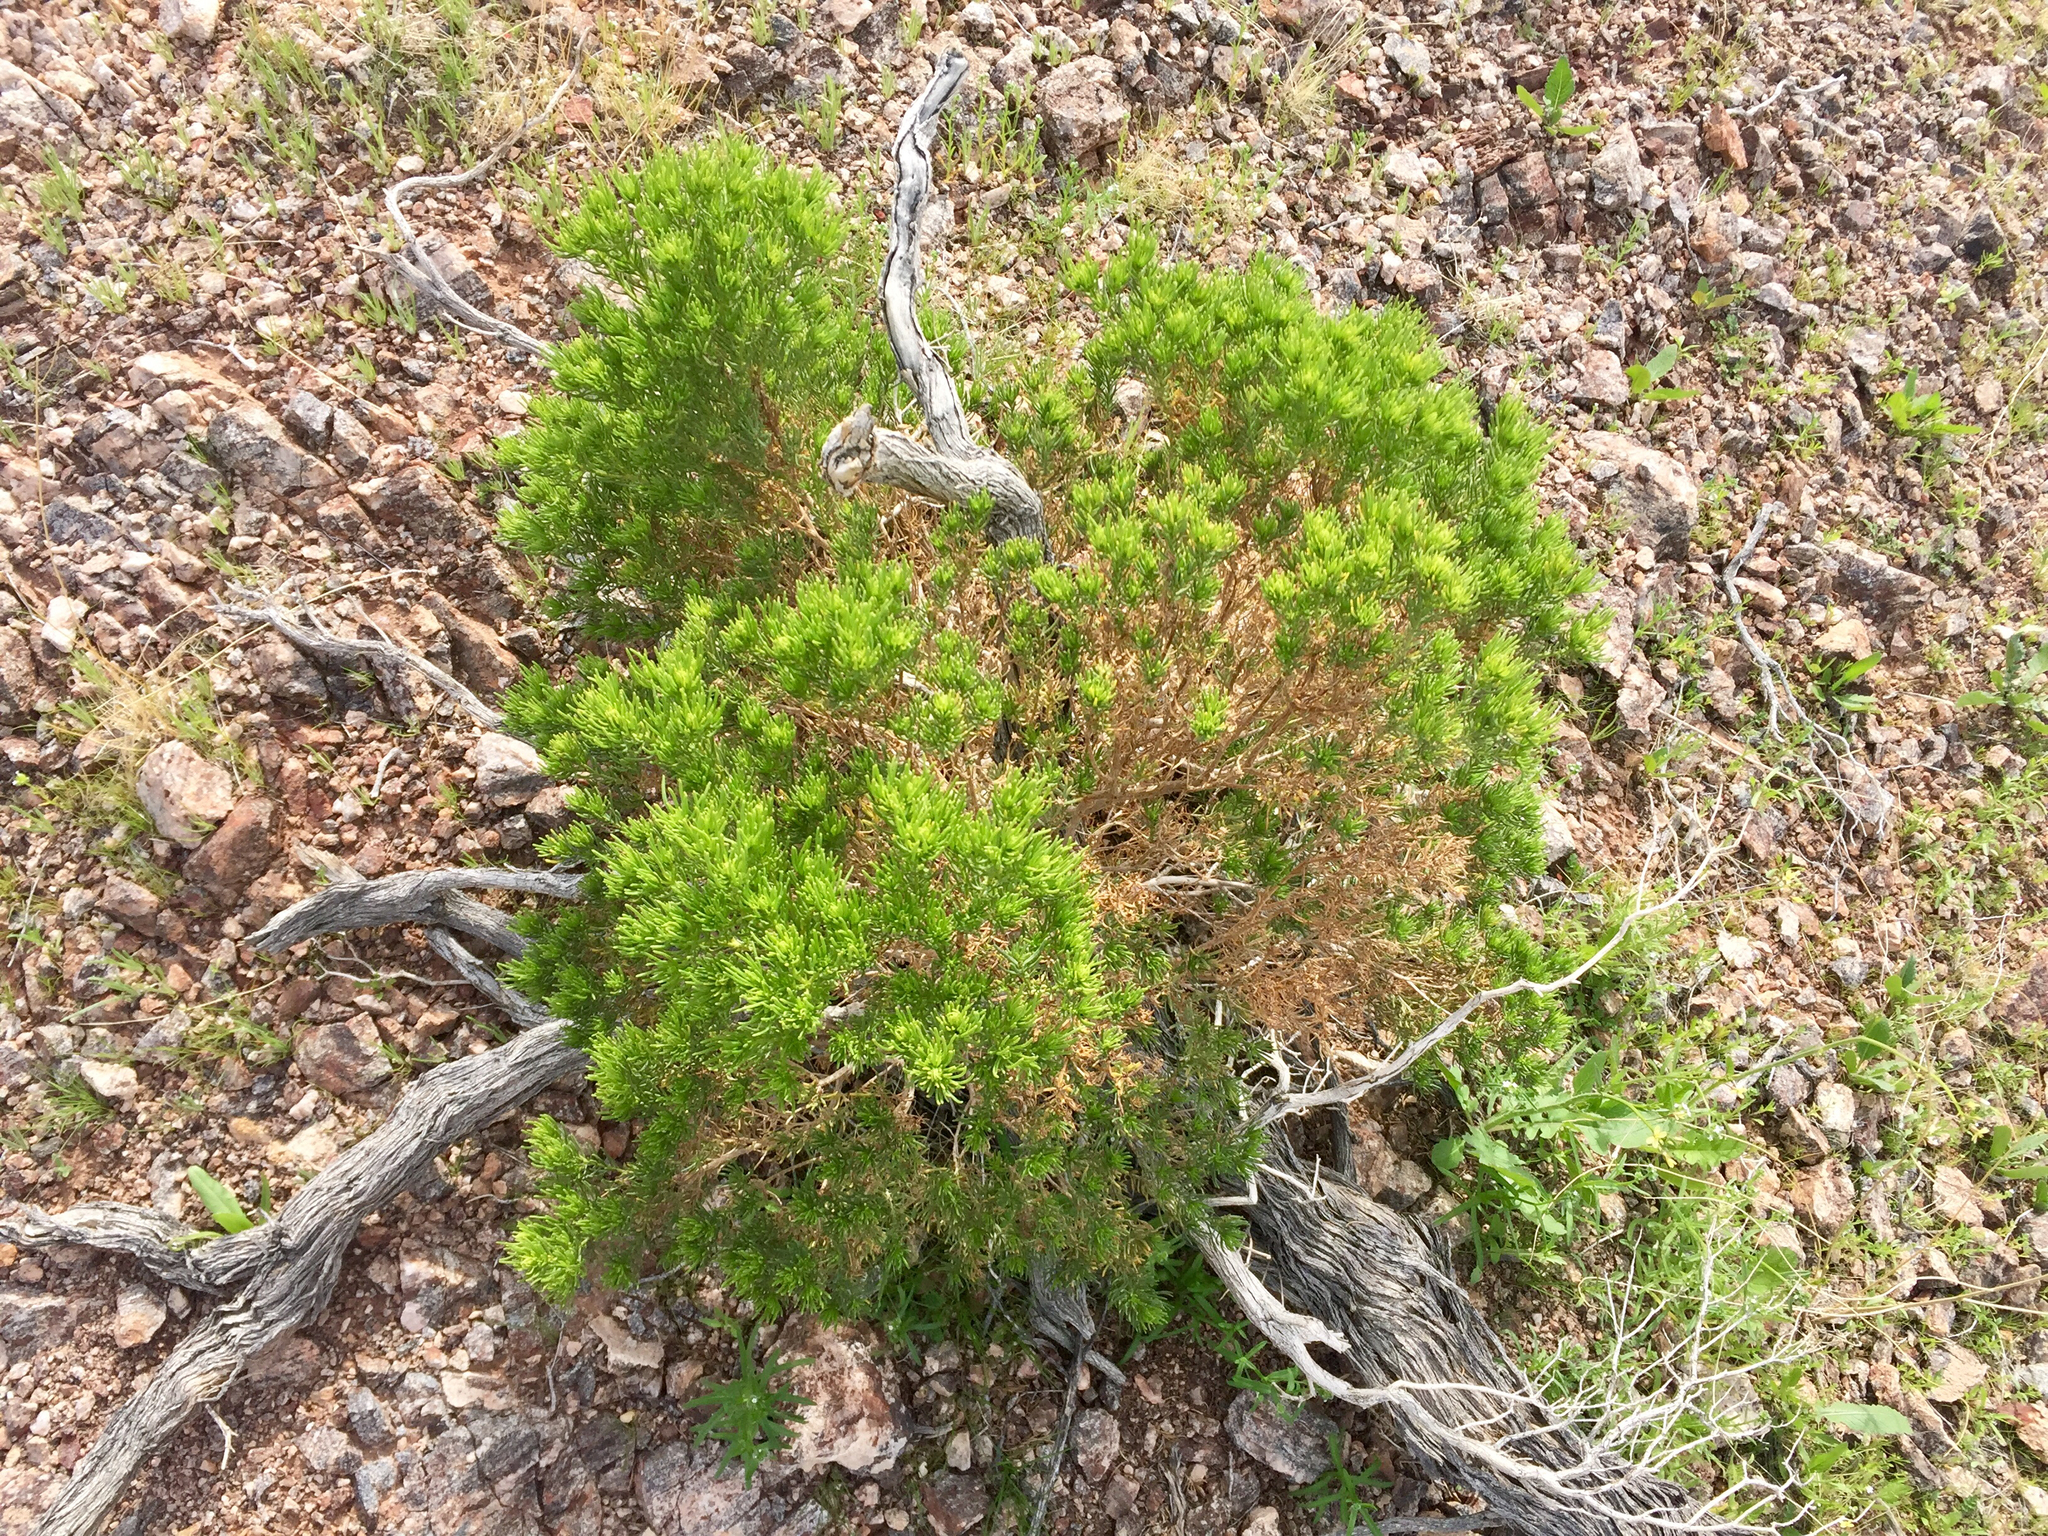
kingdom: Plantae
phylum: Tracheophyta
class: Magnoliopsida
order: Asterales
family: Asteraceae
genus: Peucephyllum
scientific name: Peucephyllum schottii
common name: Pygmy-cedar
